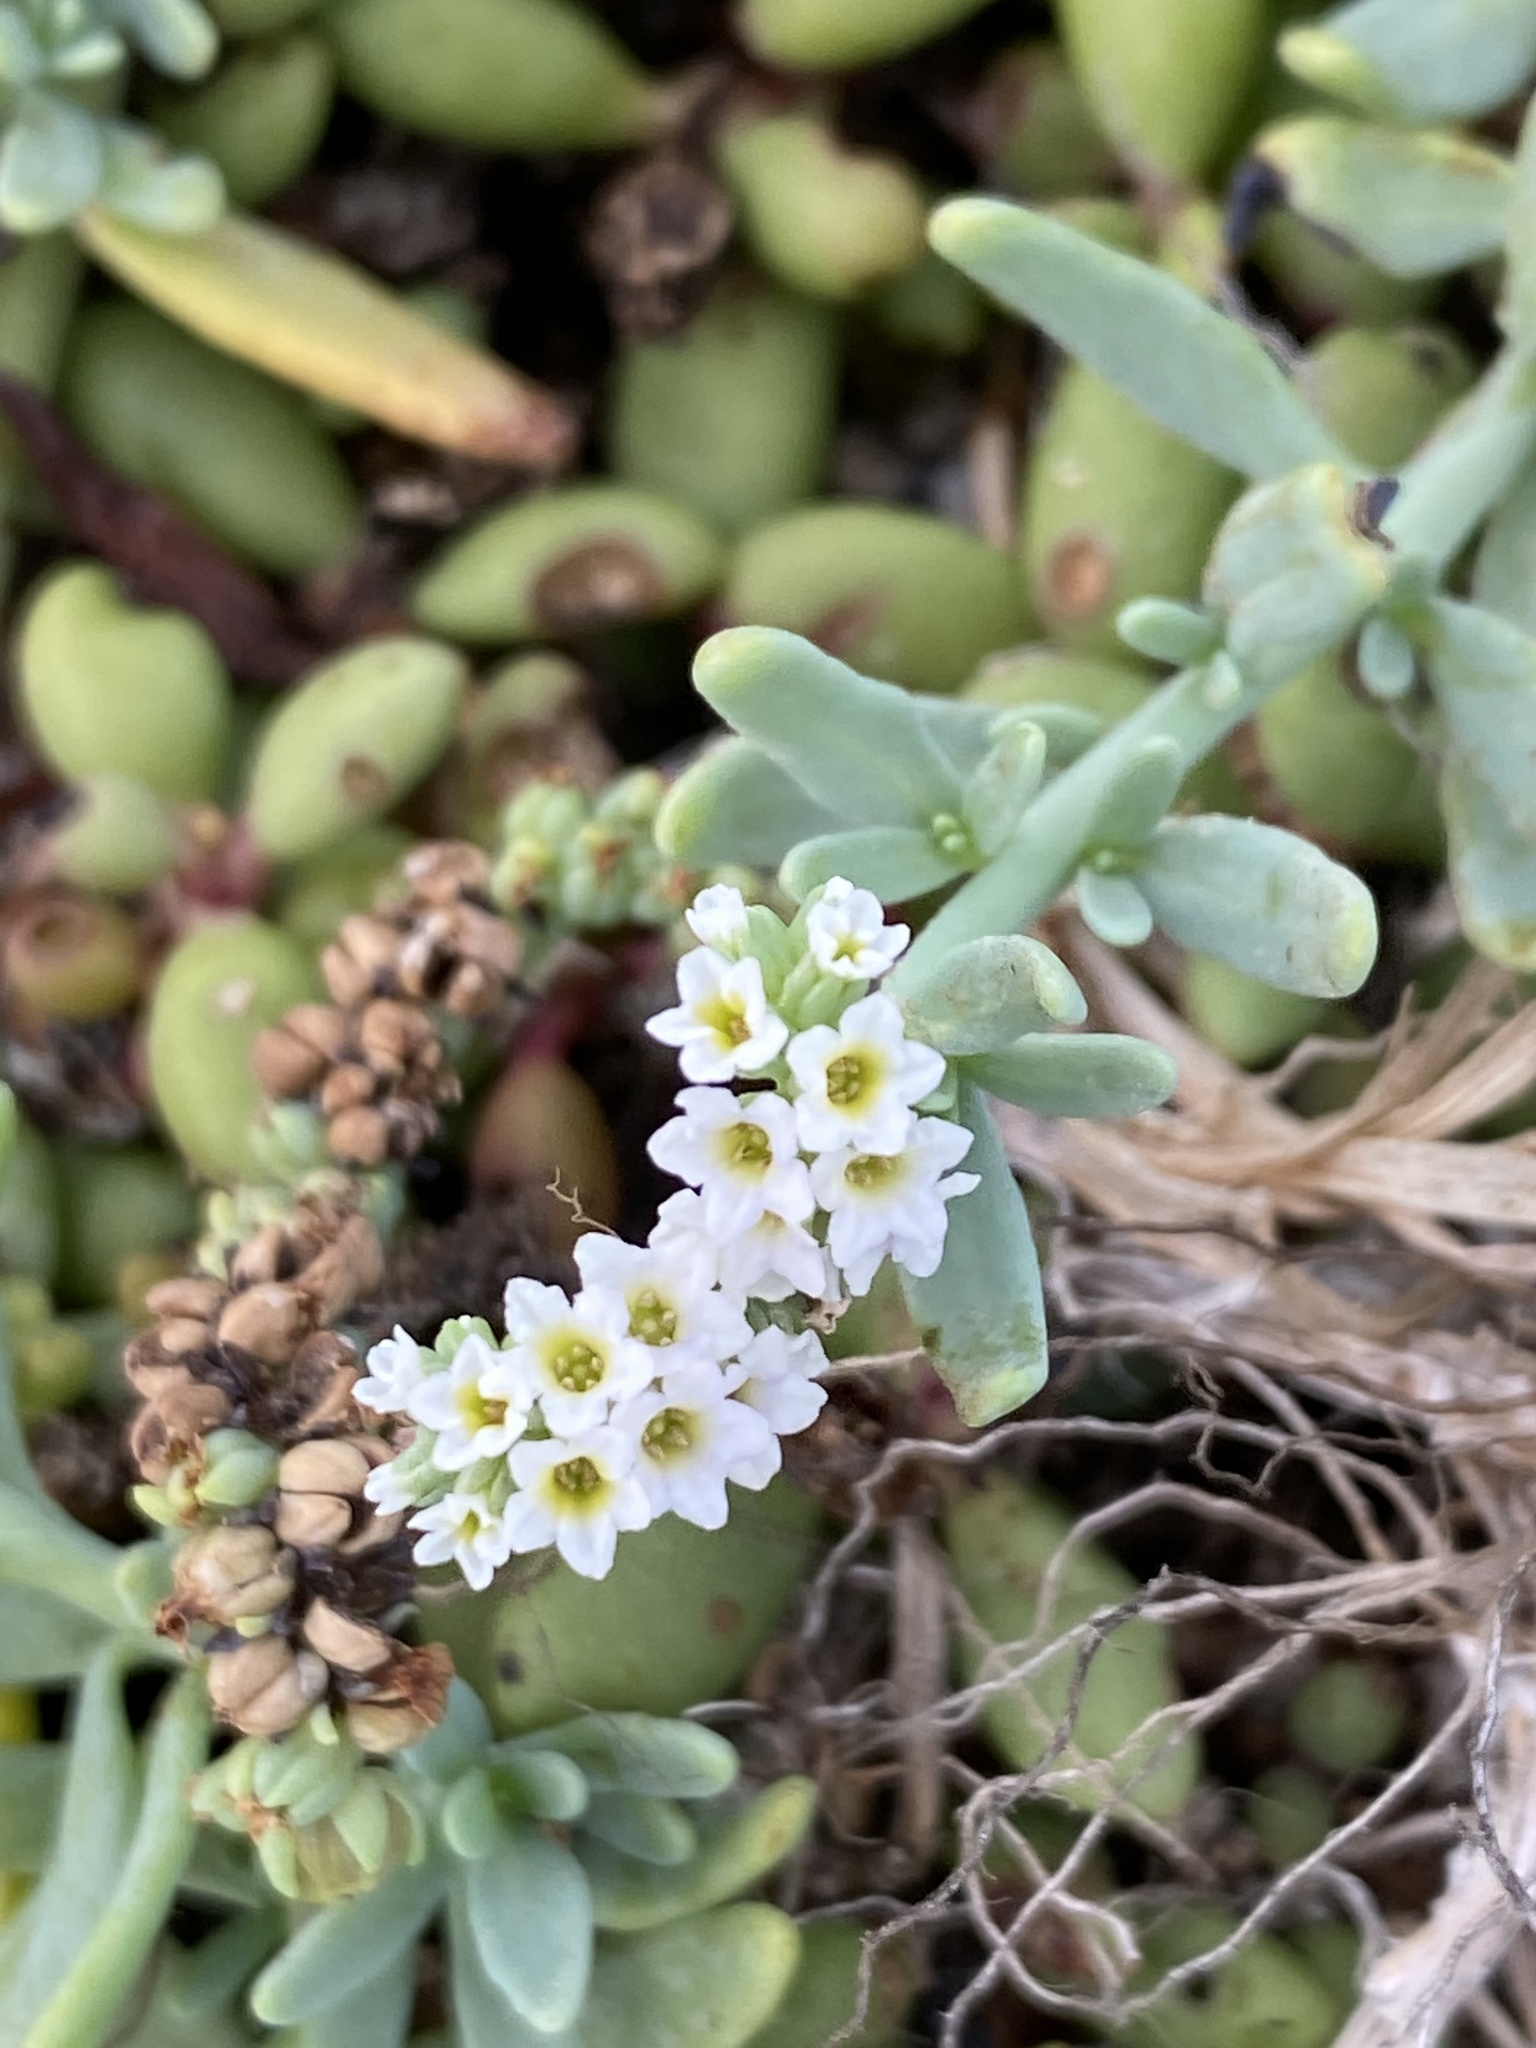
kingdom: Plantae
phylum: Tracheophyta
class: Magnoliopsida
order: Boraginales
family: Heliotropiaceae
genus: Heliotropium
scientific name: Heliotropium curassavicum
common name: Seaside heliotrope
